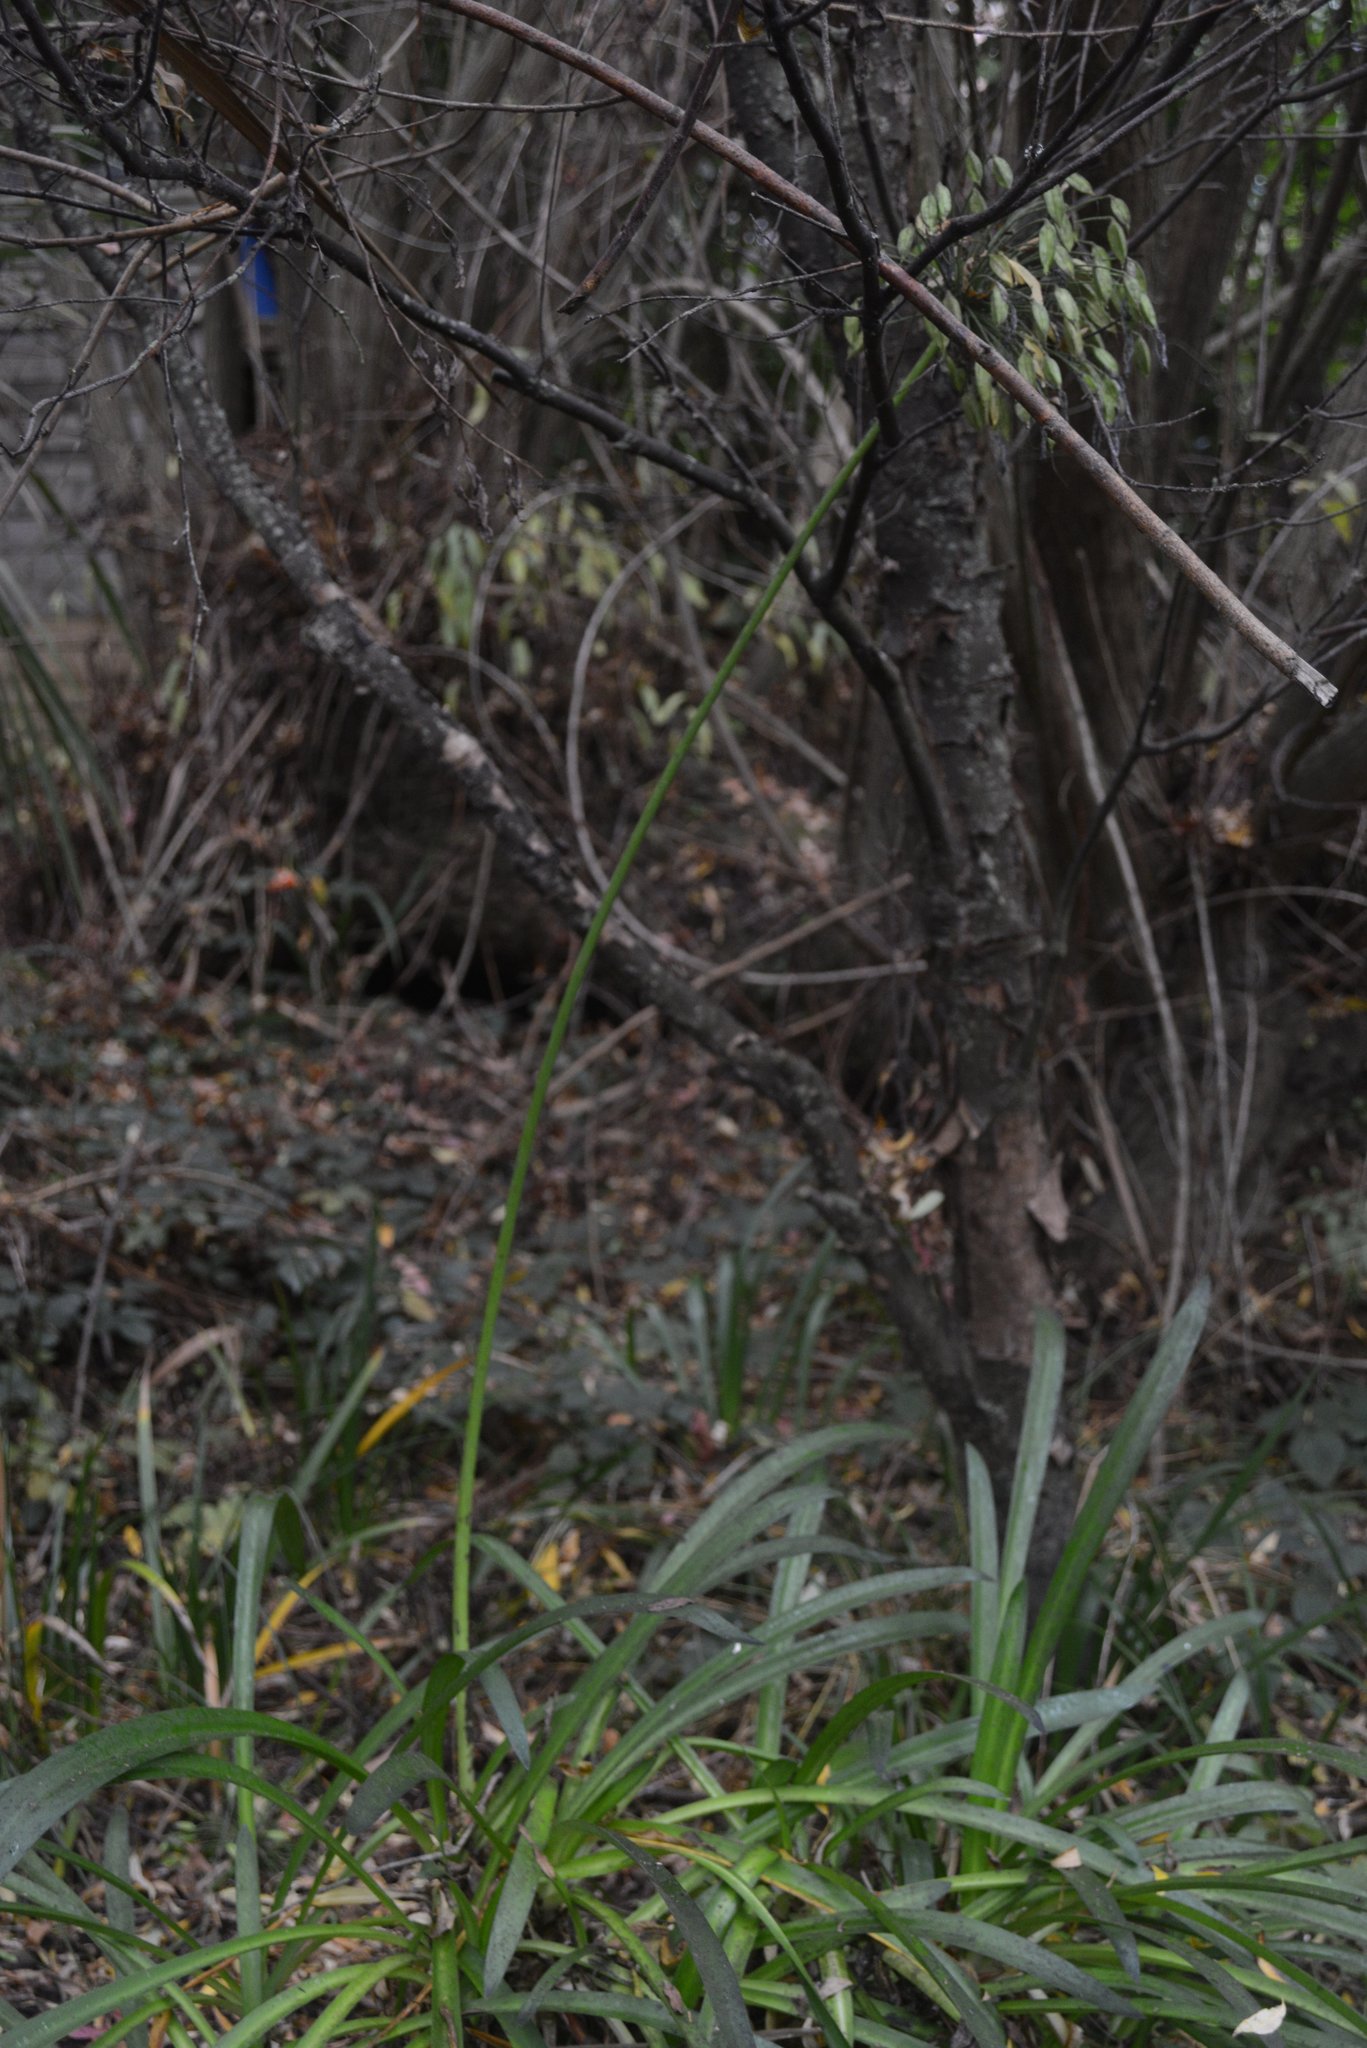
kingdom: Plantae
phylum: Tracheophyta
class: Liliopsida
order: Asparagales
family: Amaryllidaceae
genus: Agapanthus
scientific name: Agapanthus praecox
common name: African-lily
